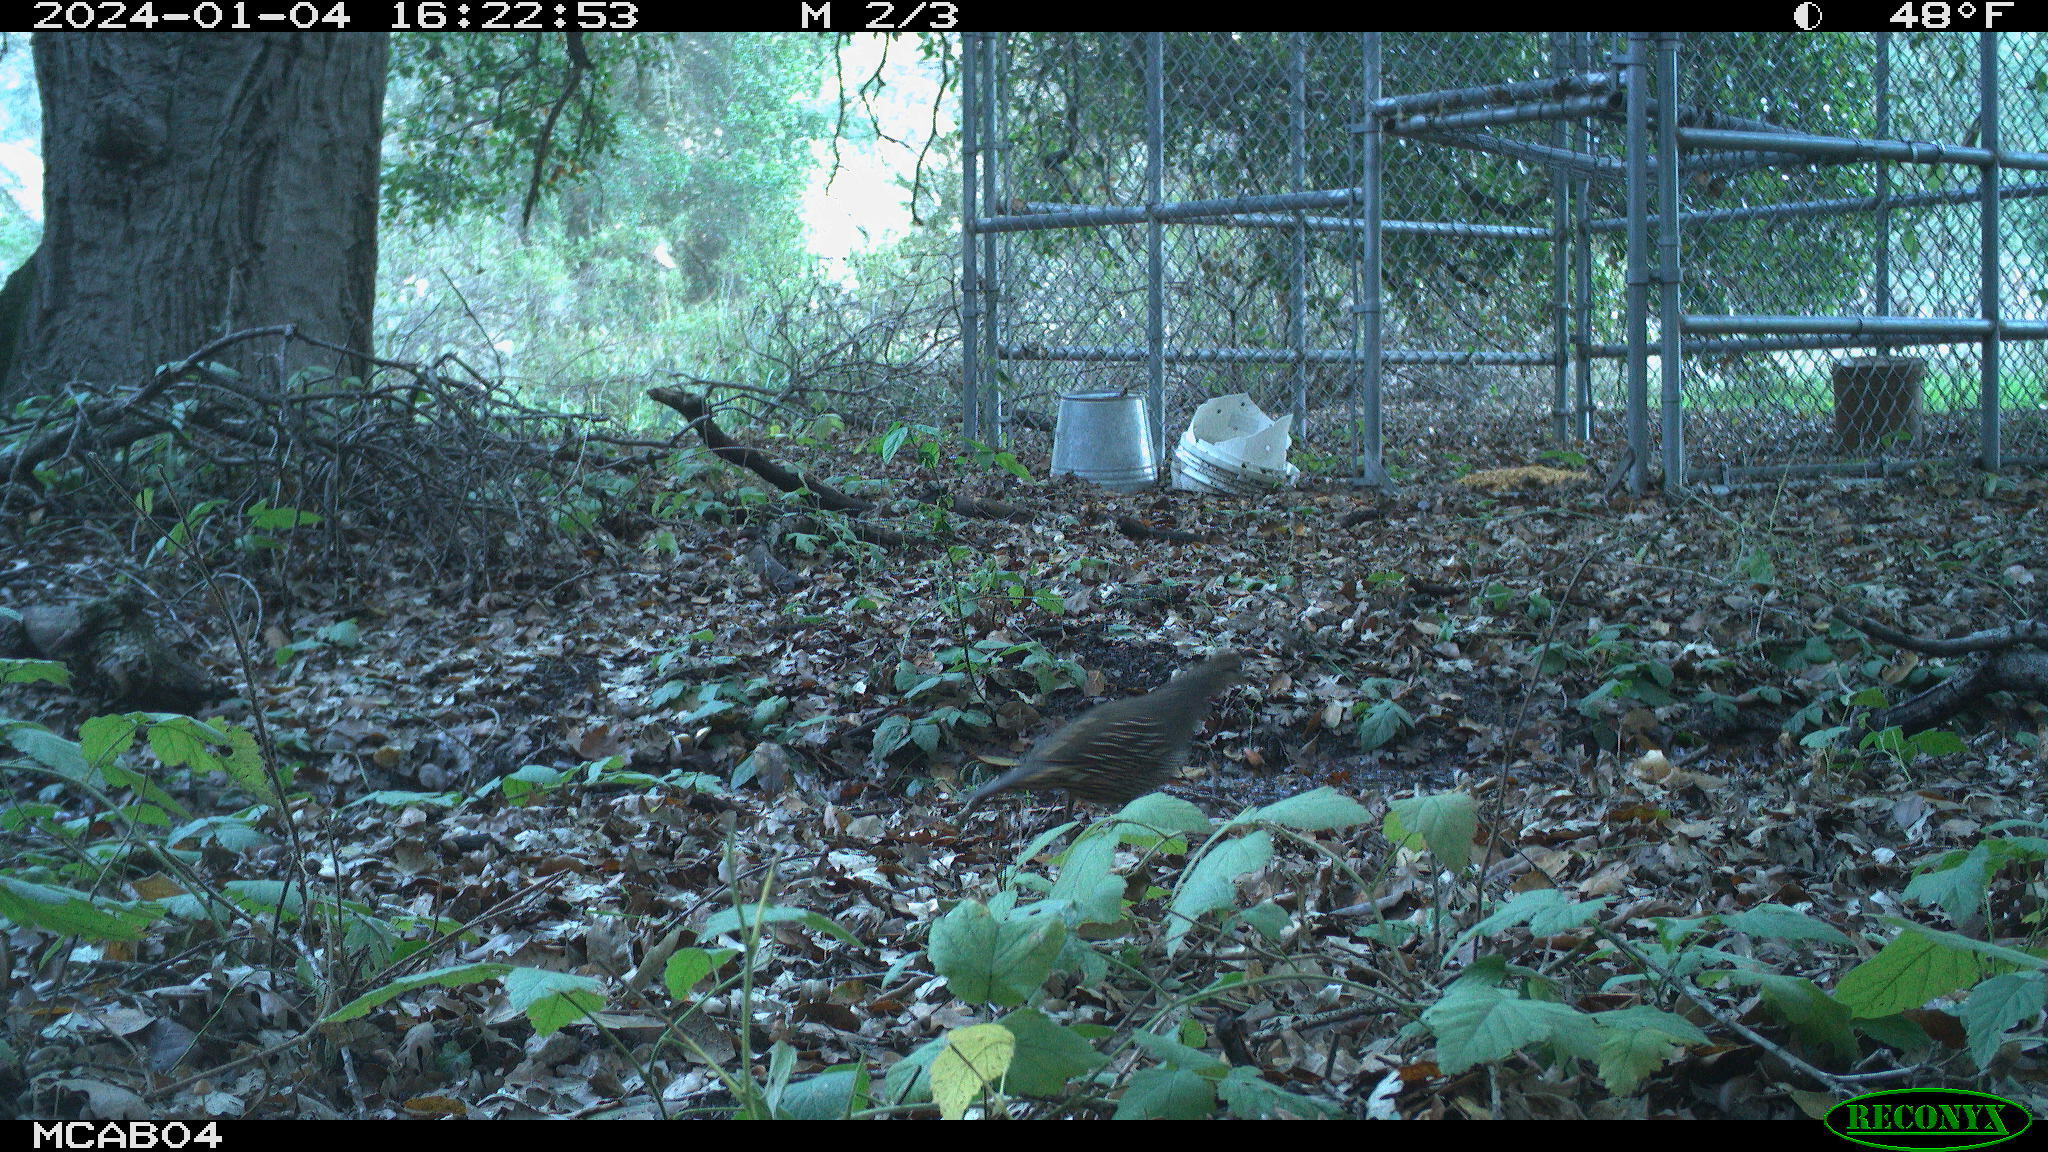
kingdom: Animalia
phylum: Chordata
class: Aves
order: Galliformes
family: Odontophoridae
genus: Callipepla
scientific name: Callipepla californica
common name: California quail
